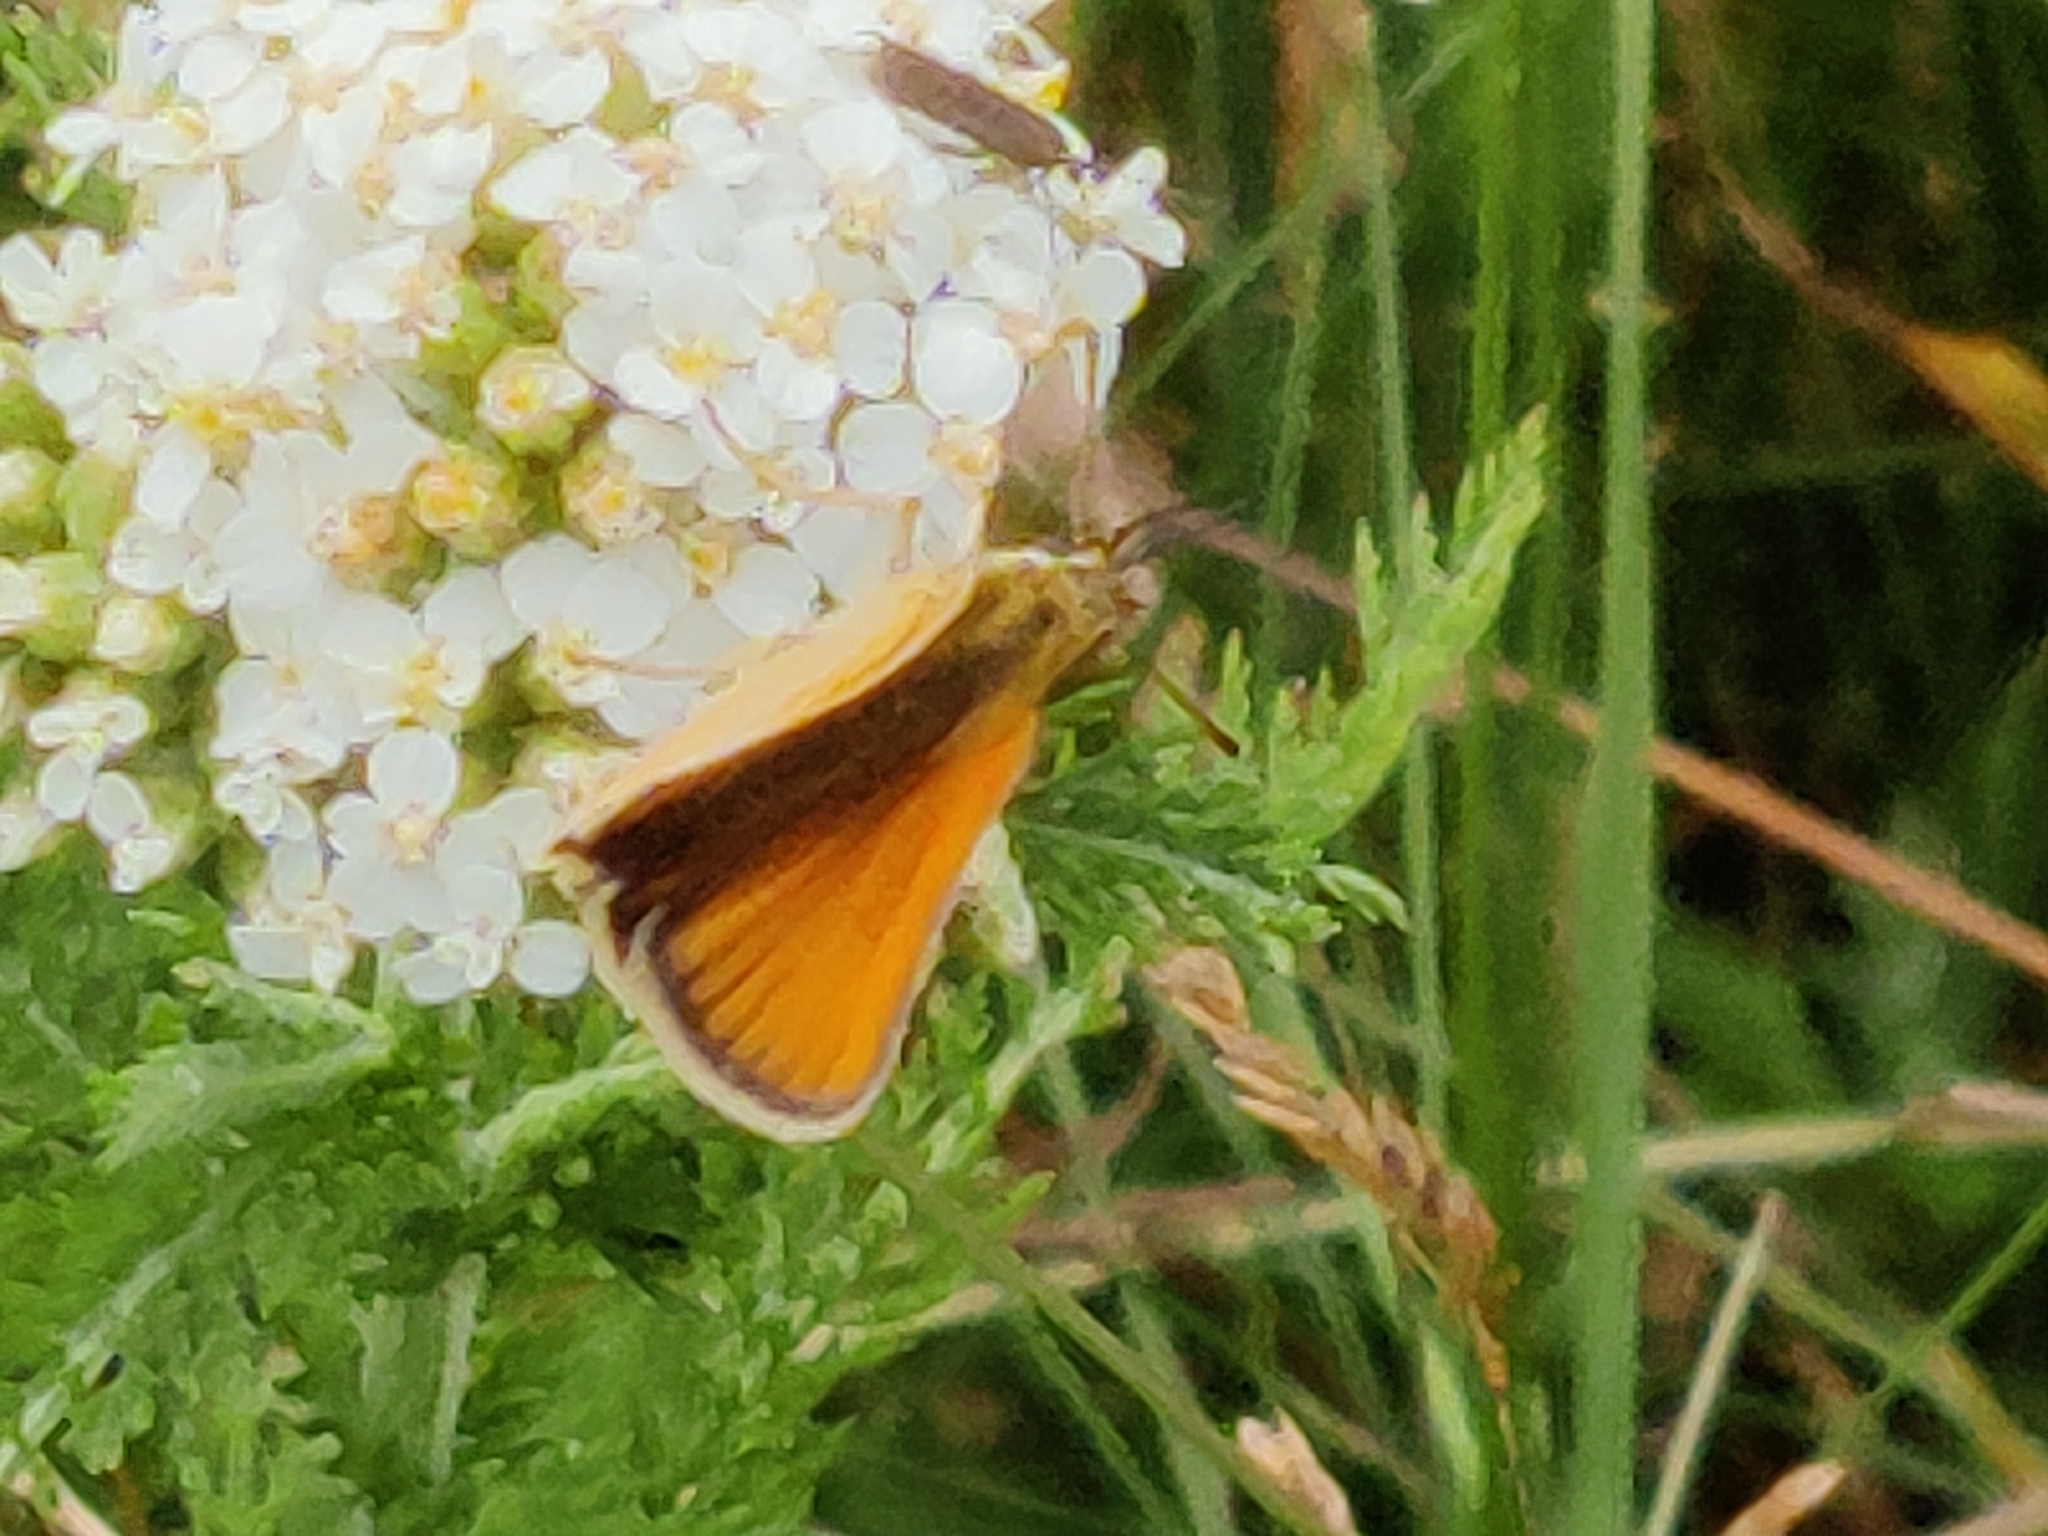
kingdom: Animalia
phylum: Arthropoda
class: Insecta
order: Lepidoptera
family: Hesperiidae
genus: Thymelicus
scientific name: Thymelicus lineola
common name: Essex skipper
